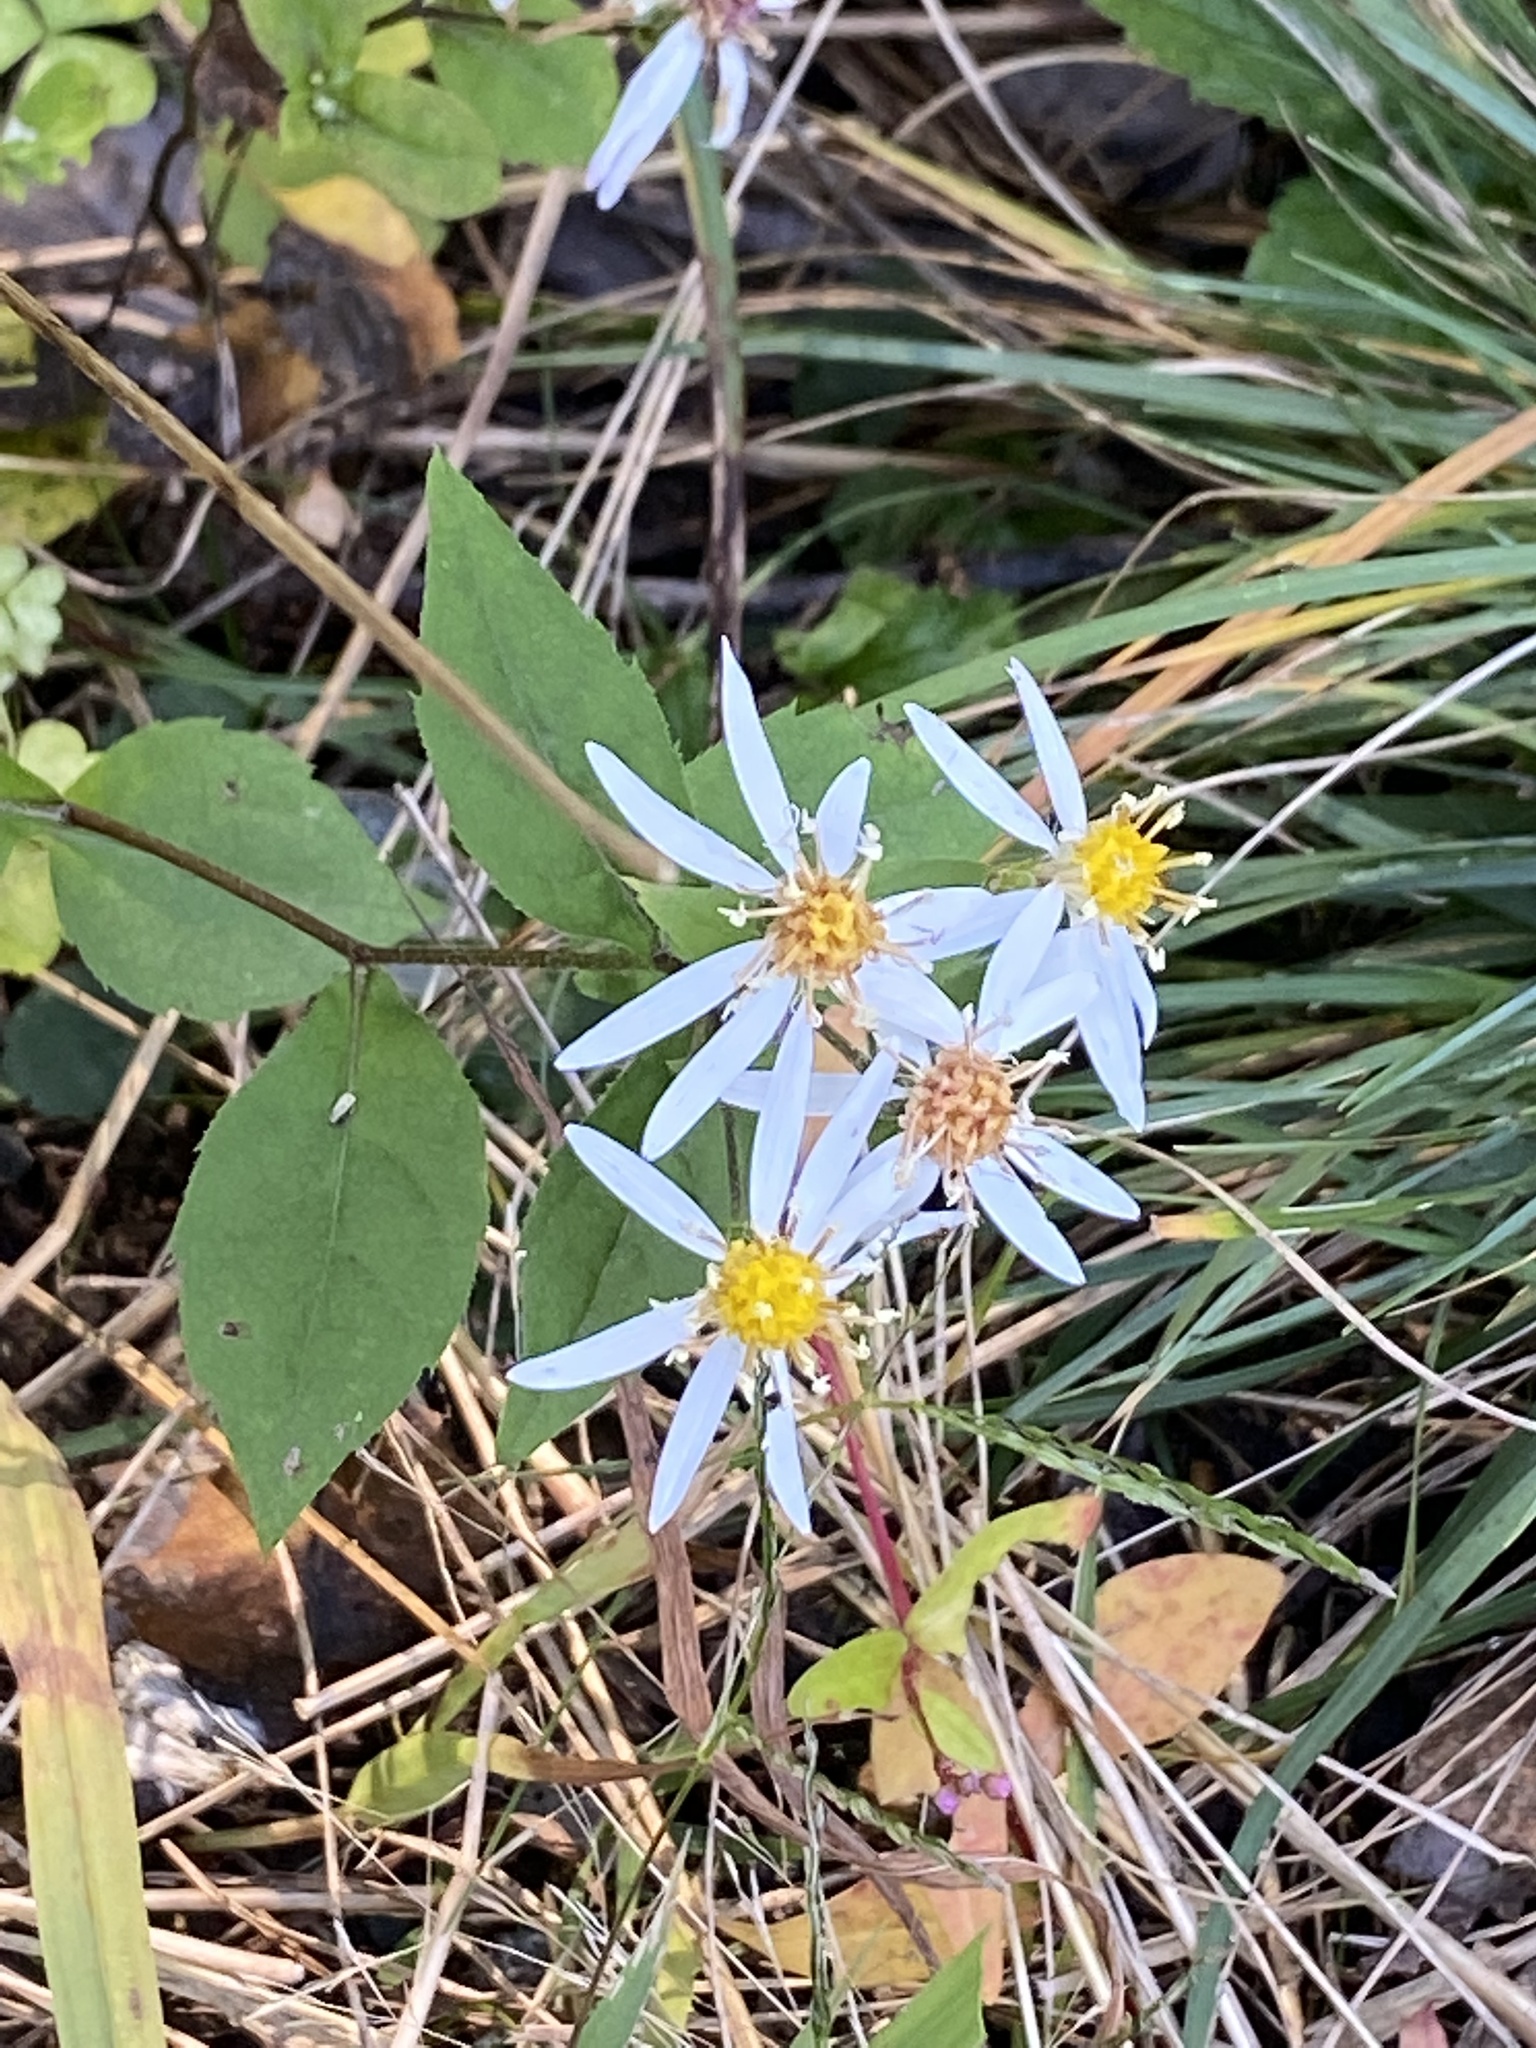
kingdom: Plantae
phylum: Tracheophyta
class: Magnoliopsida
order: Asterales
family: Asteraceae
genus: Eurybia
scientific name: Eurybia divaricata
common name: White wood aster
